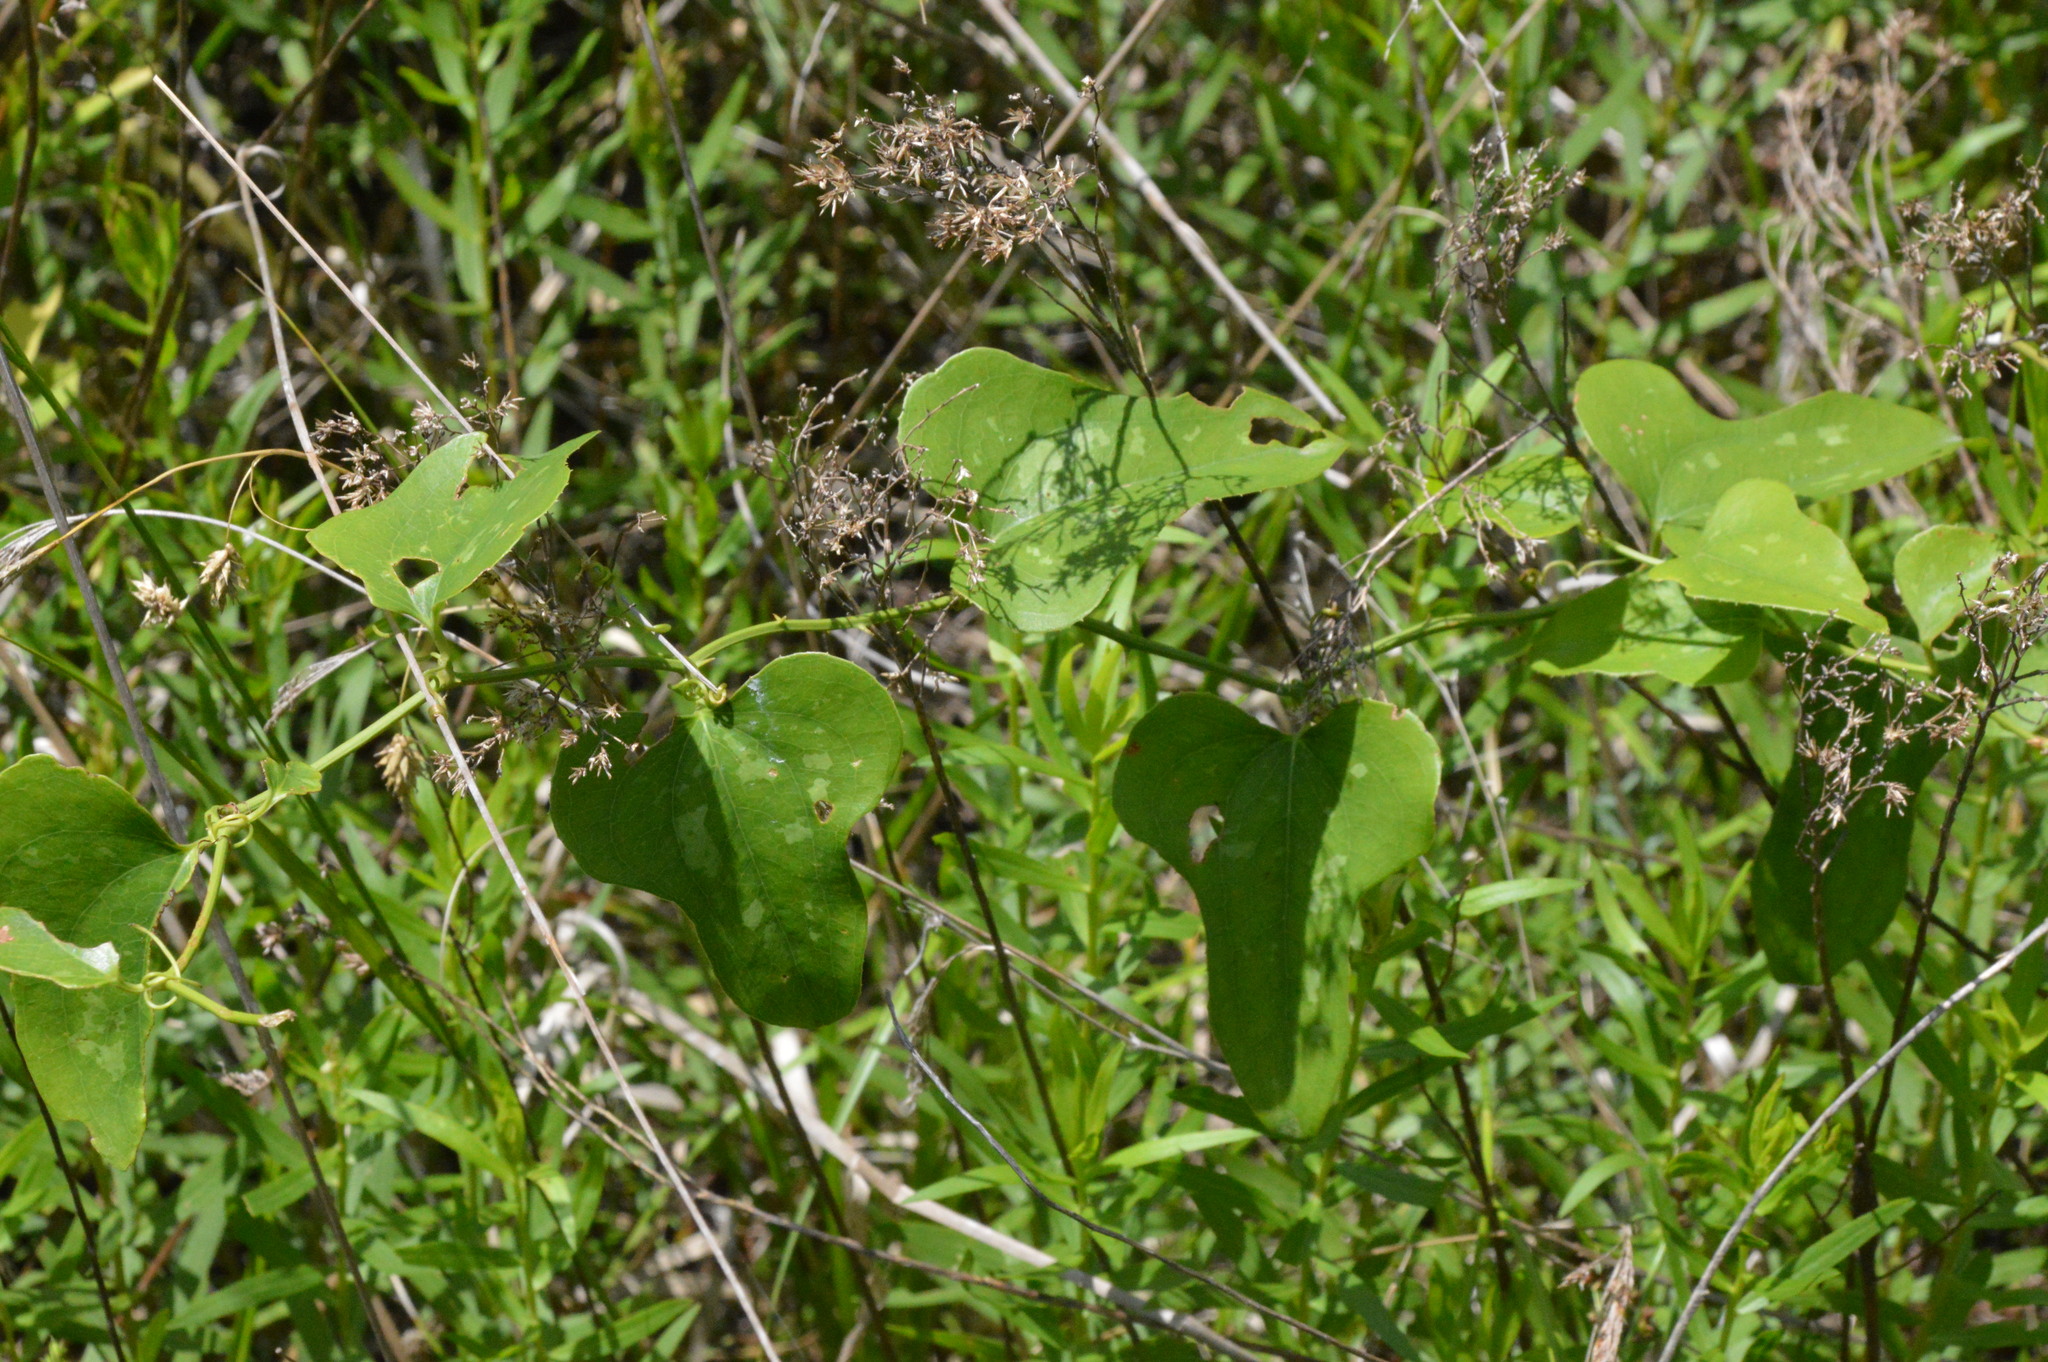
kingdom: Plantae
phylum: Tracheophyta
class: Liliopsida
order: Liliales
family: Smilacaceae
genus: Smilax
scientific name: Smilax bona-nox
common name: Catbrier
